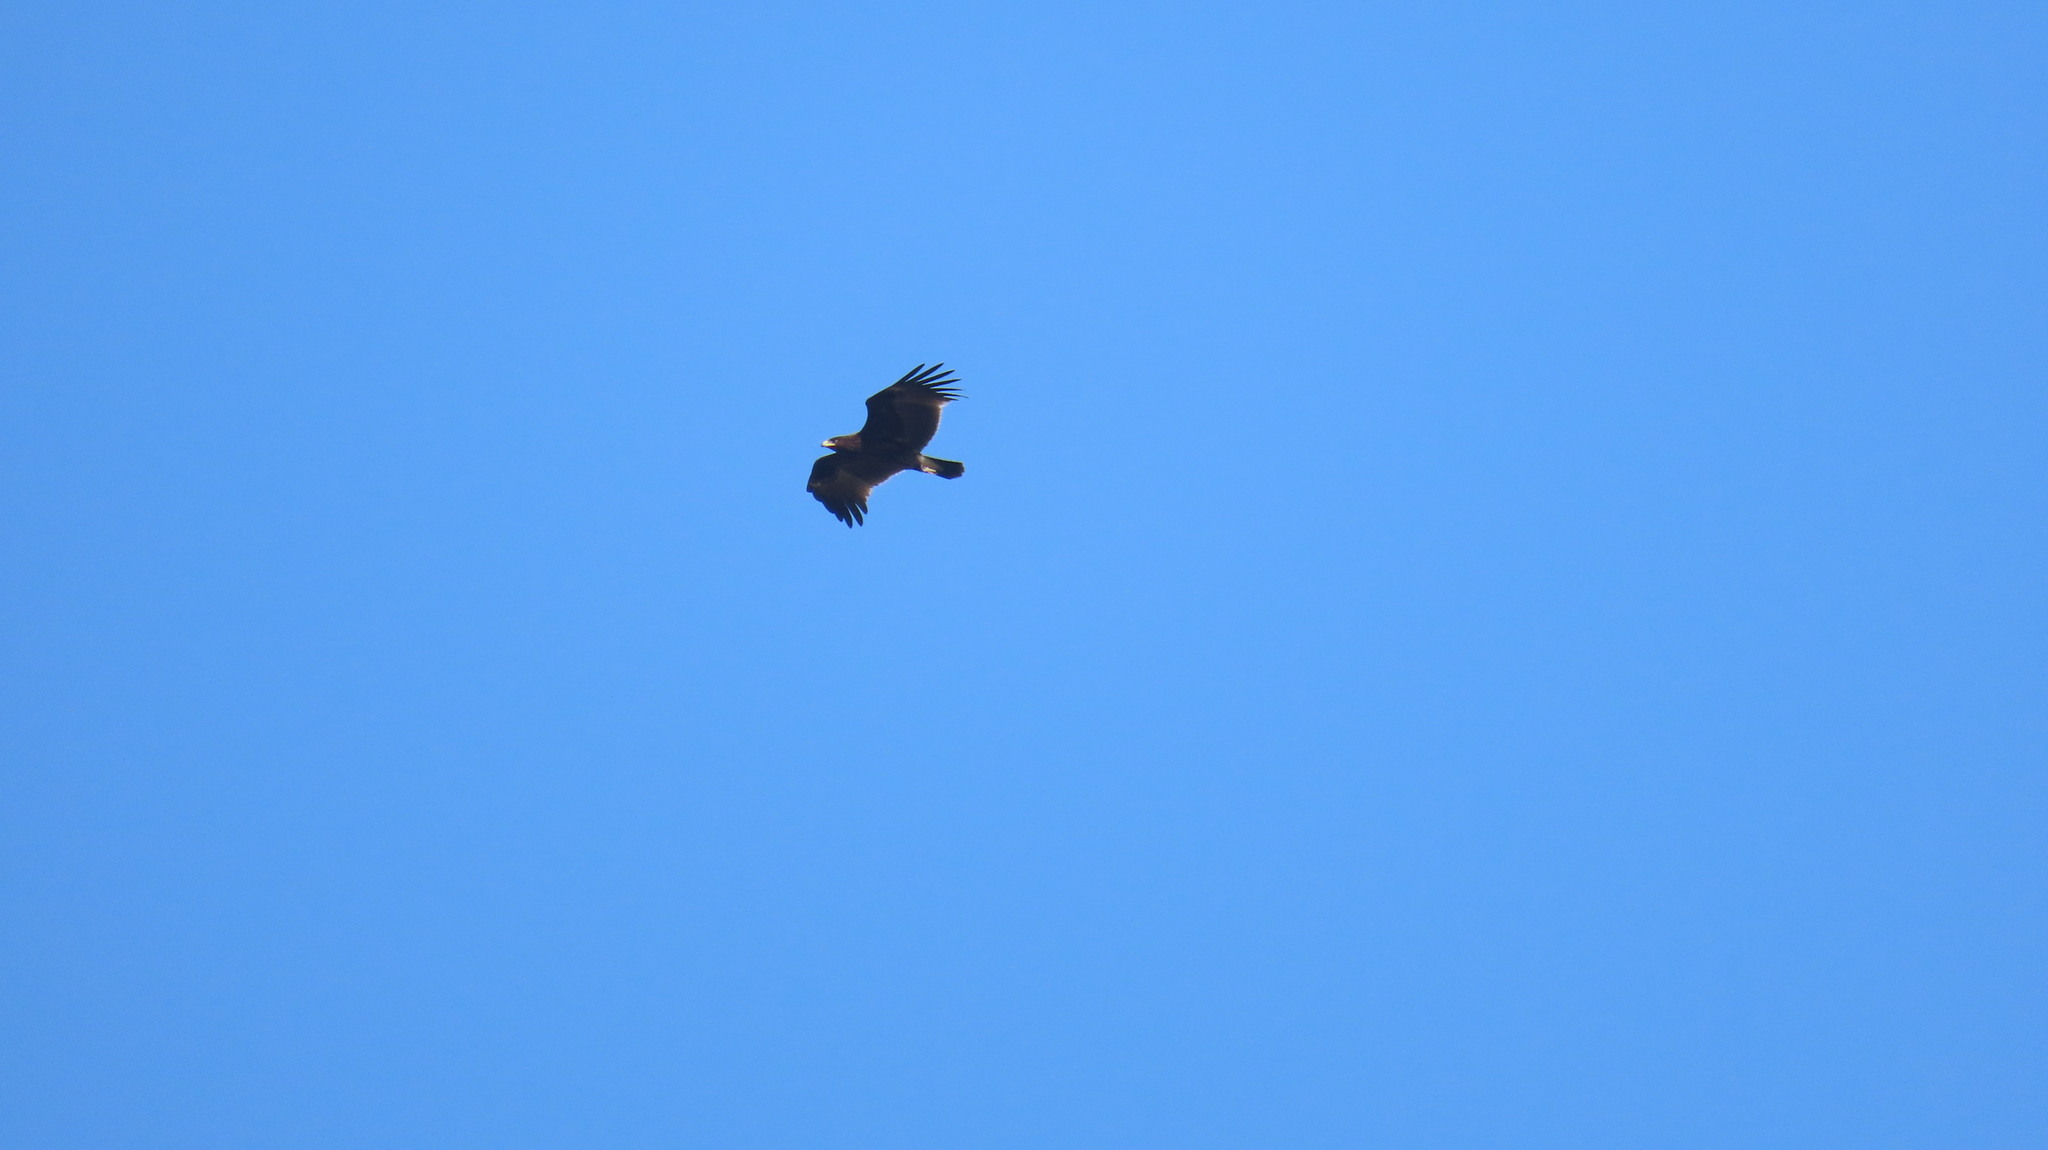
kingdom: Animalia
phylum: Chordata
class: Aves
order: Accipitriformes
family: Accipitridae
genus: Aquila
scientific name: Aquila clanga
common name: Greater spotted eagle
